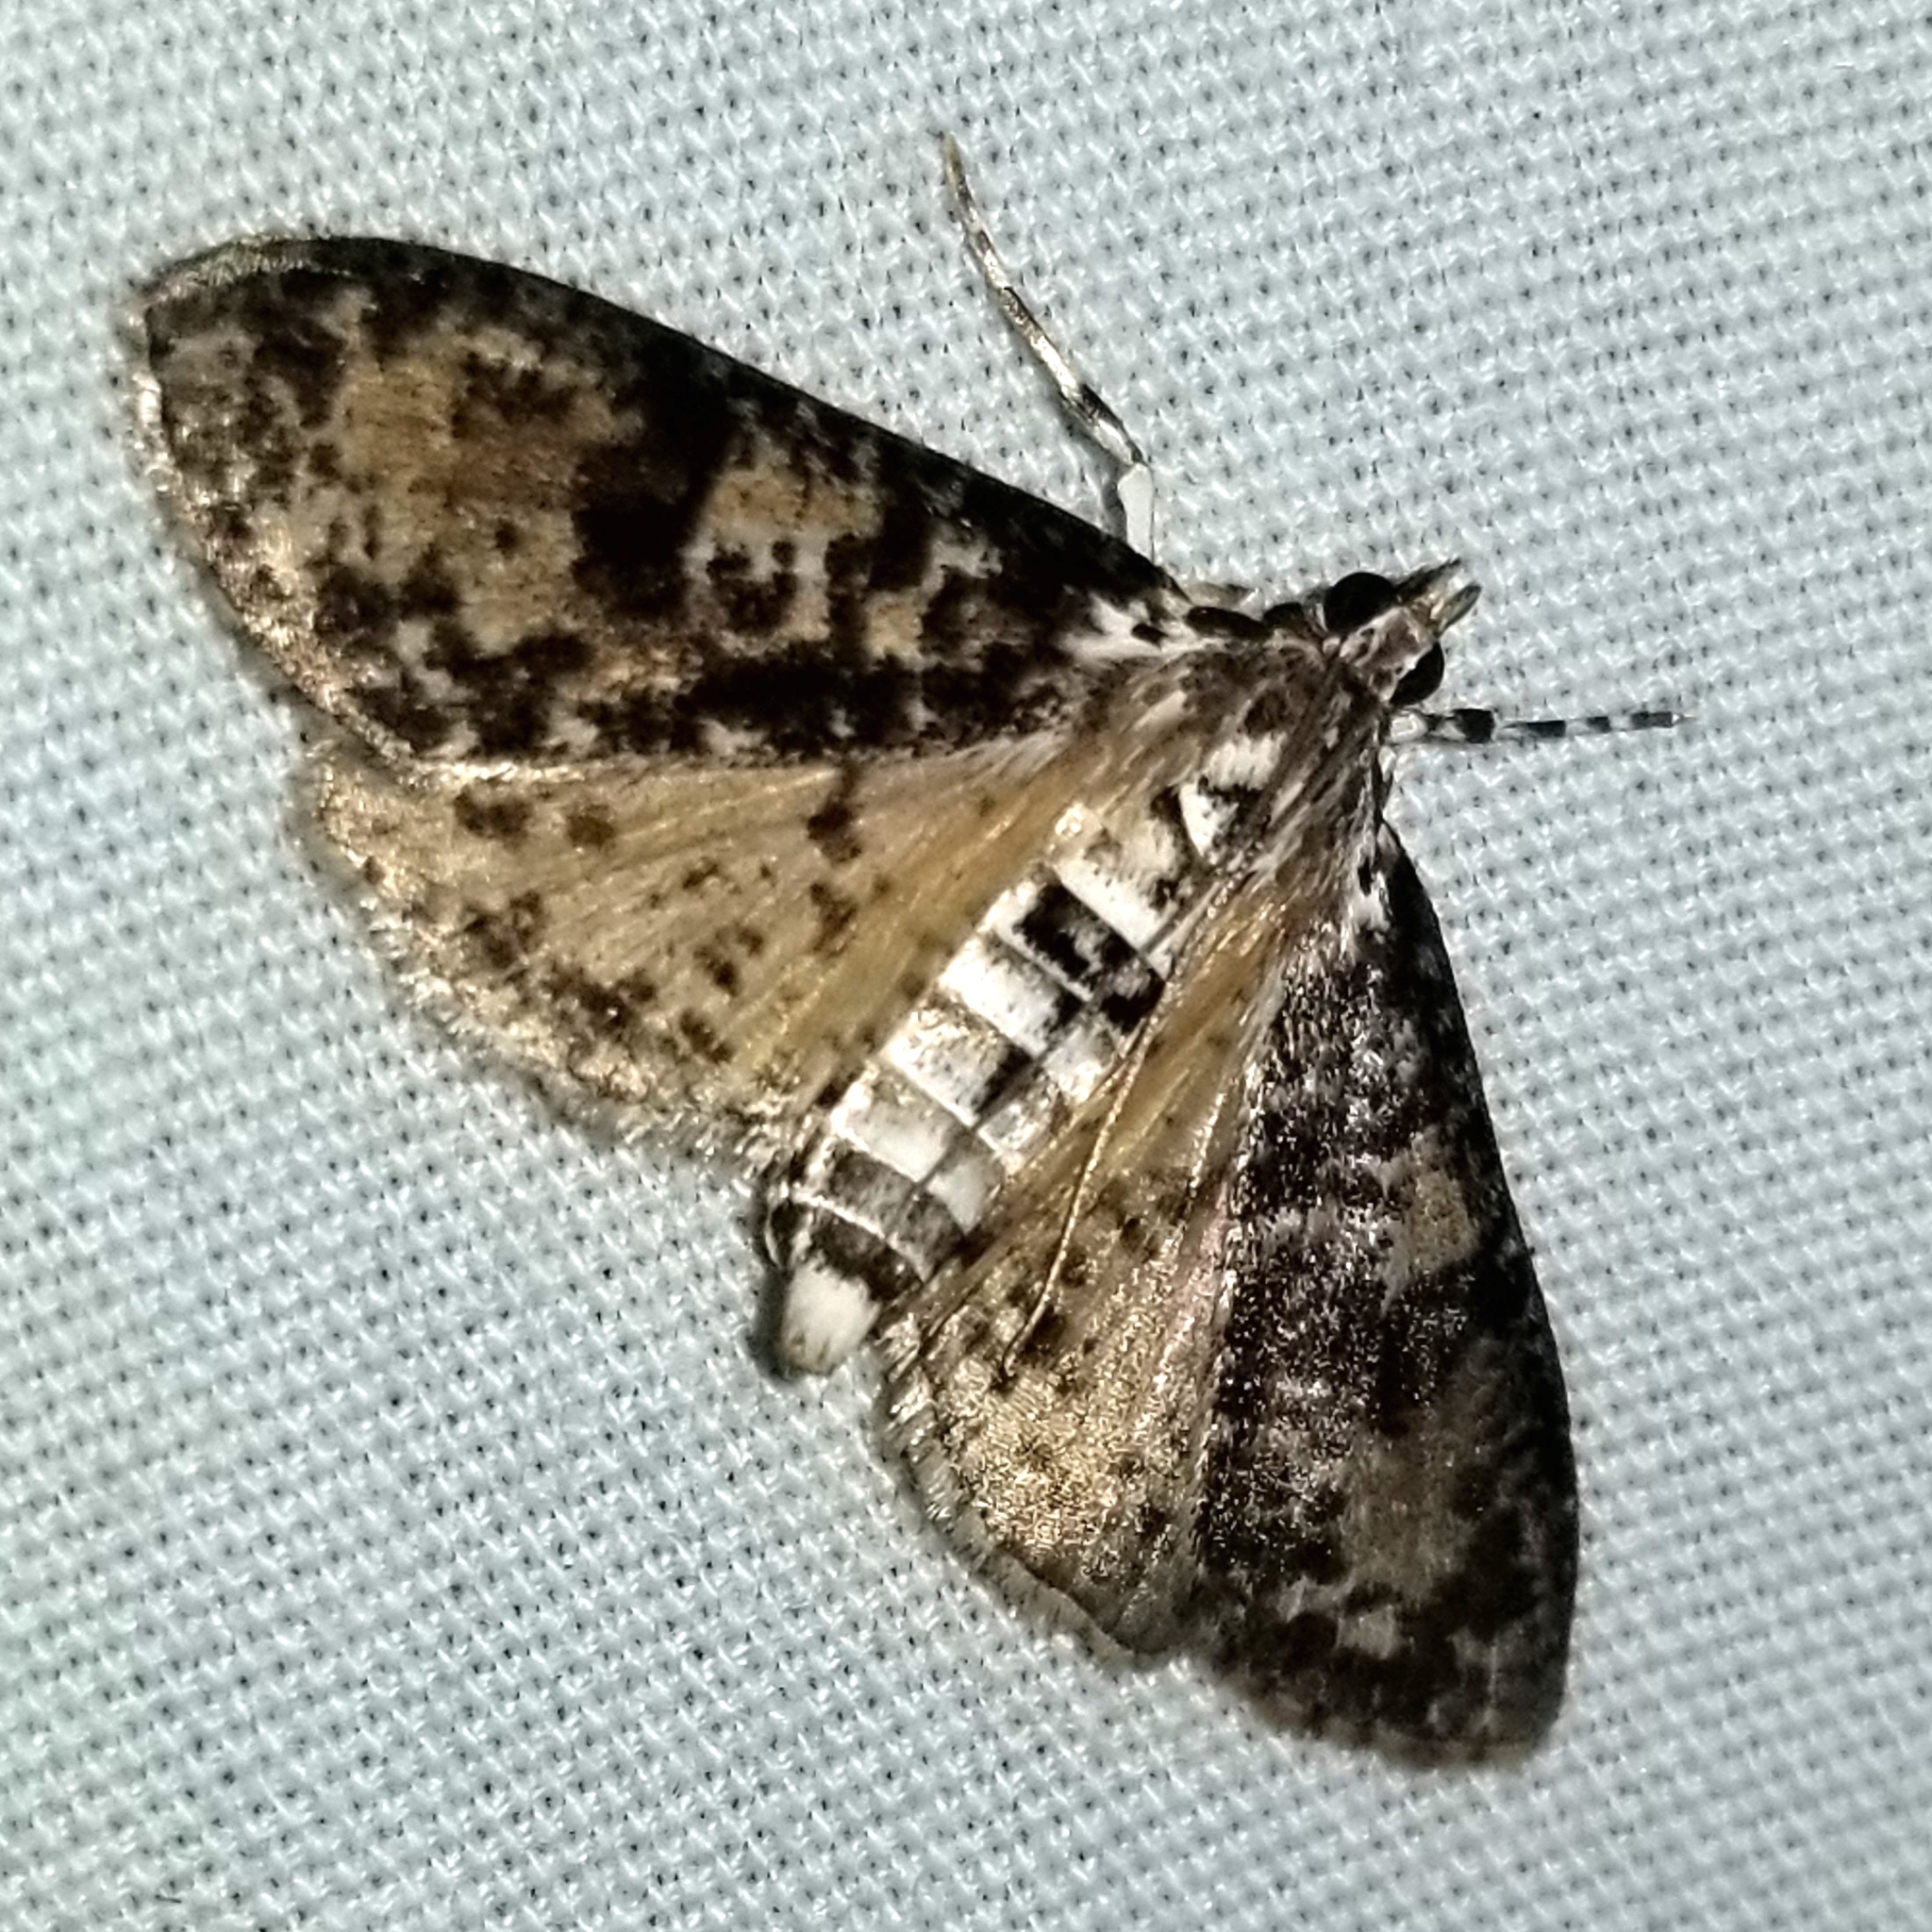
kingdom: Animalia
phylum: Arthropoda
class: Insecta
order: Lepidoptera
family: Crambidae
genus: Palpita
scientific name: Palpita magniferalis
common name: Splendid palpita moth
